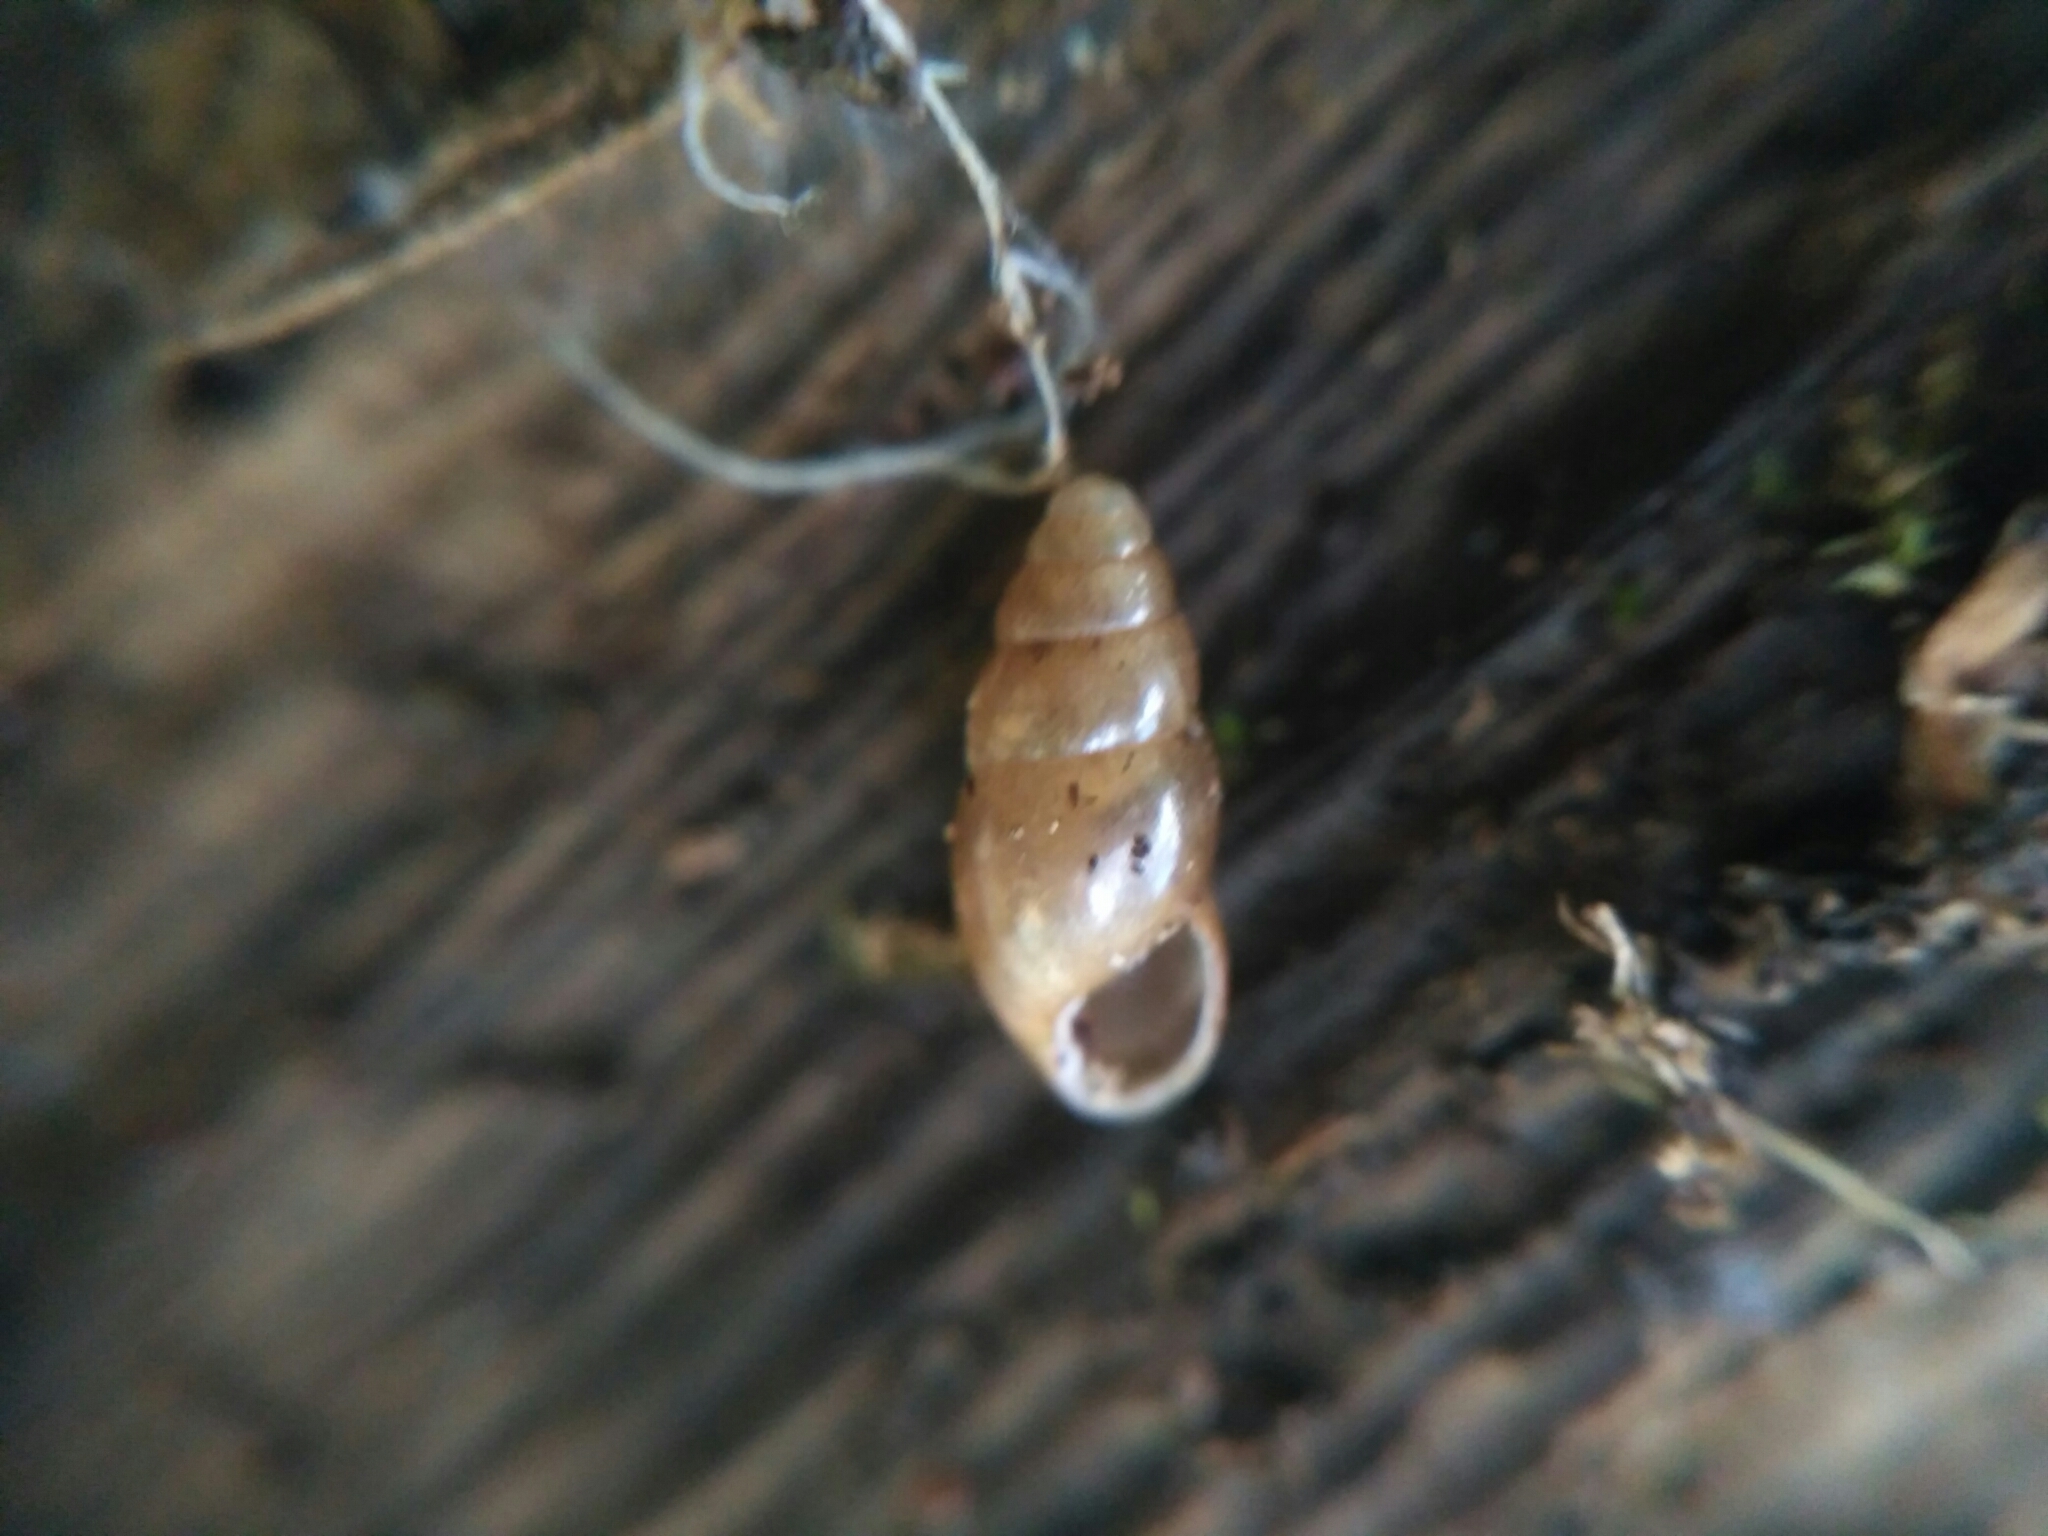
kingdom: Animalia
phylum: Mollusca
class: Gastropoda
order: Stylommatophora
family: Cochlicopidae
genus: Cochlicopa
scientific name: Cochlicopa lubrica
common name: Glossy pillar snail
